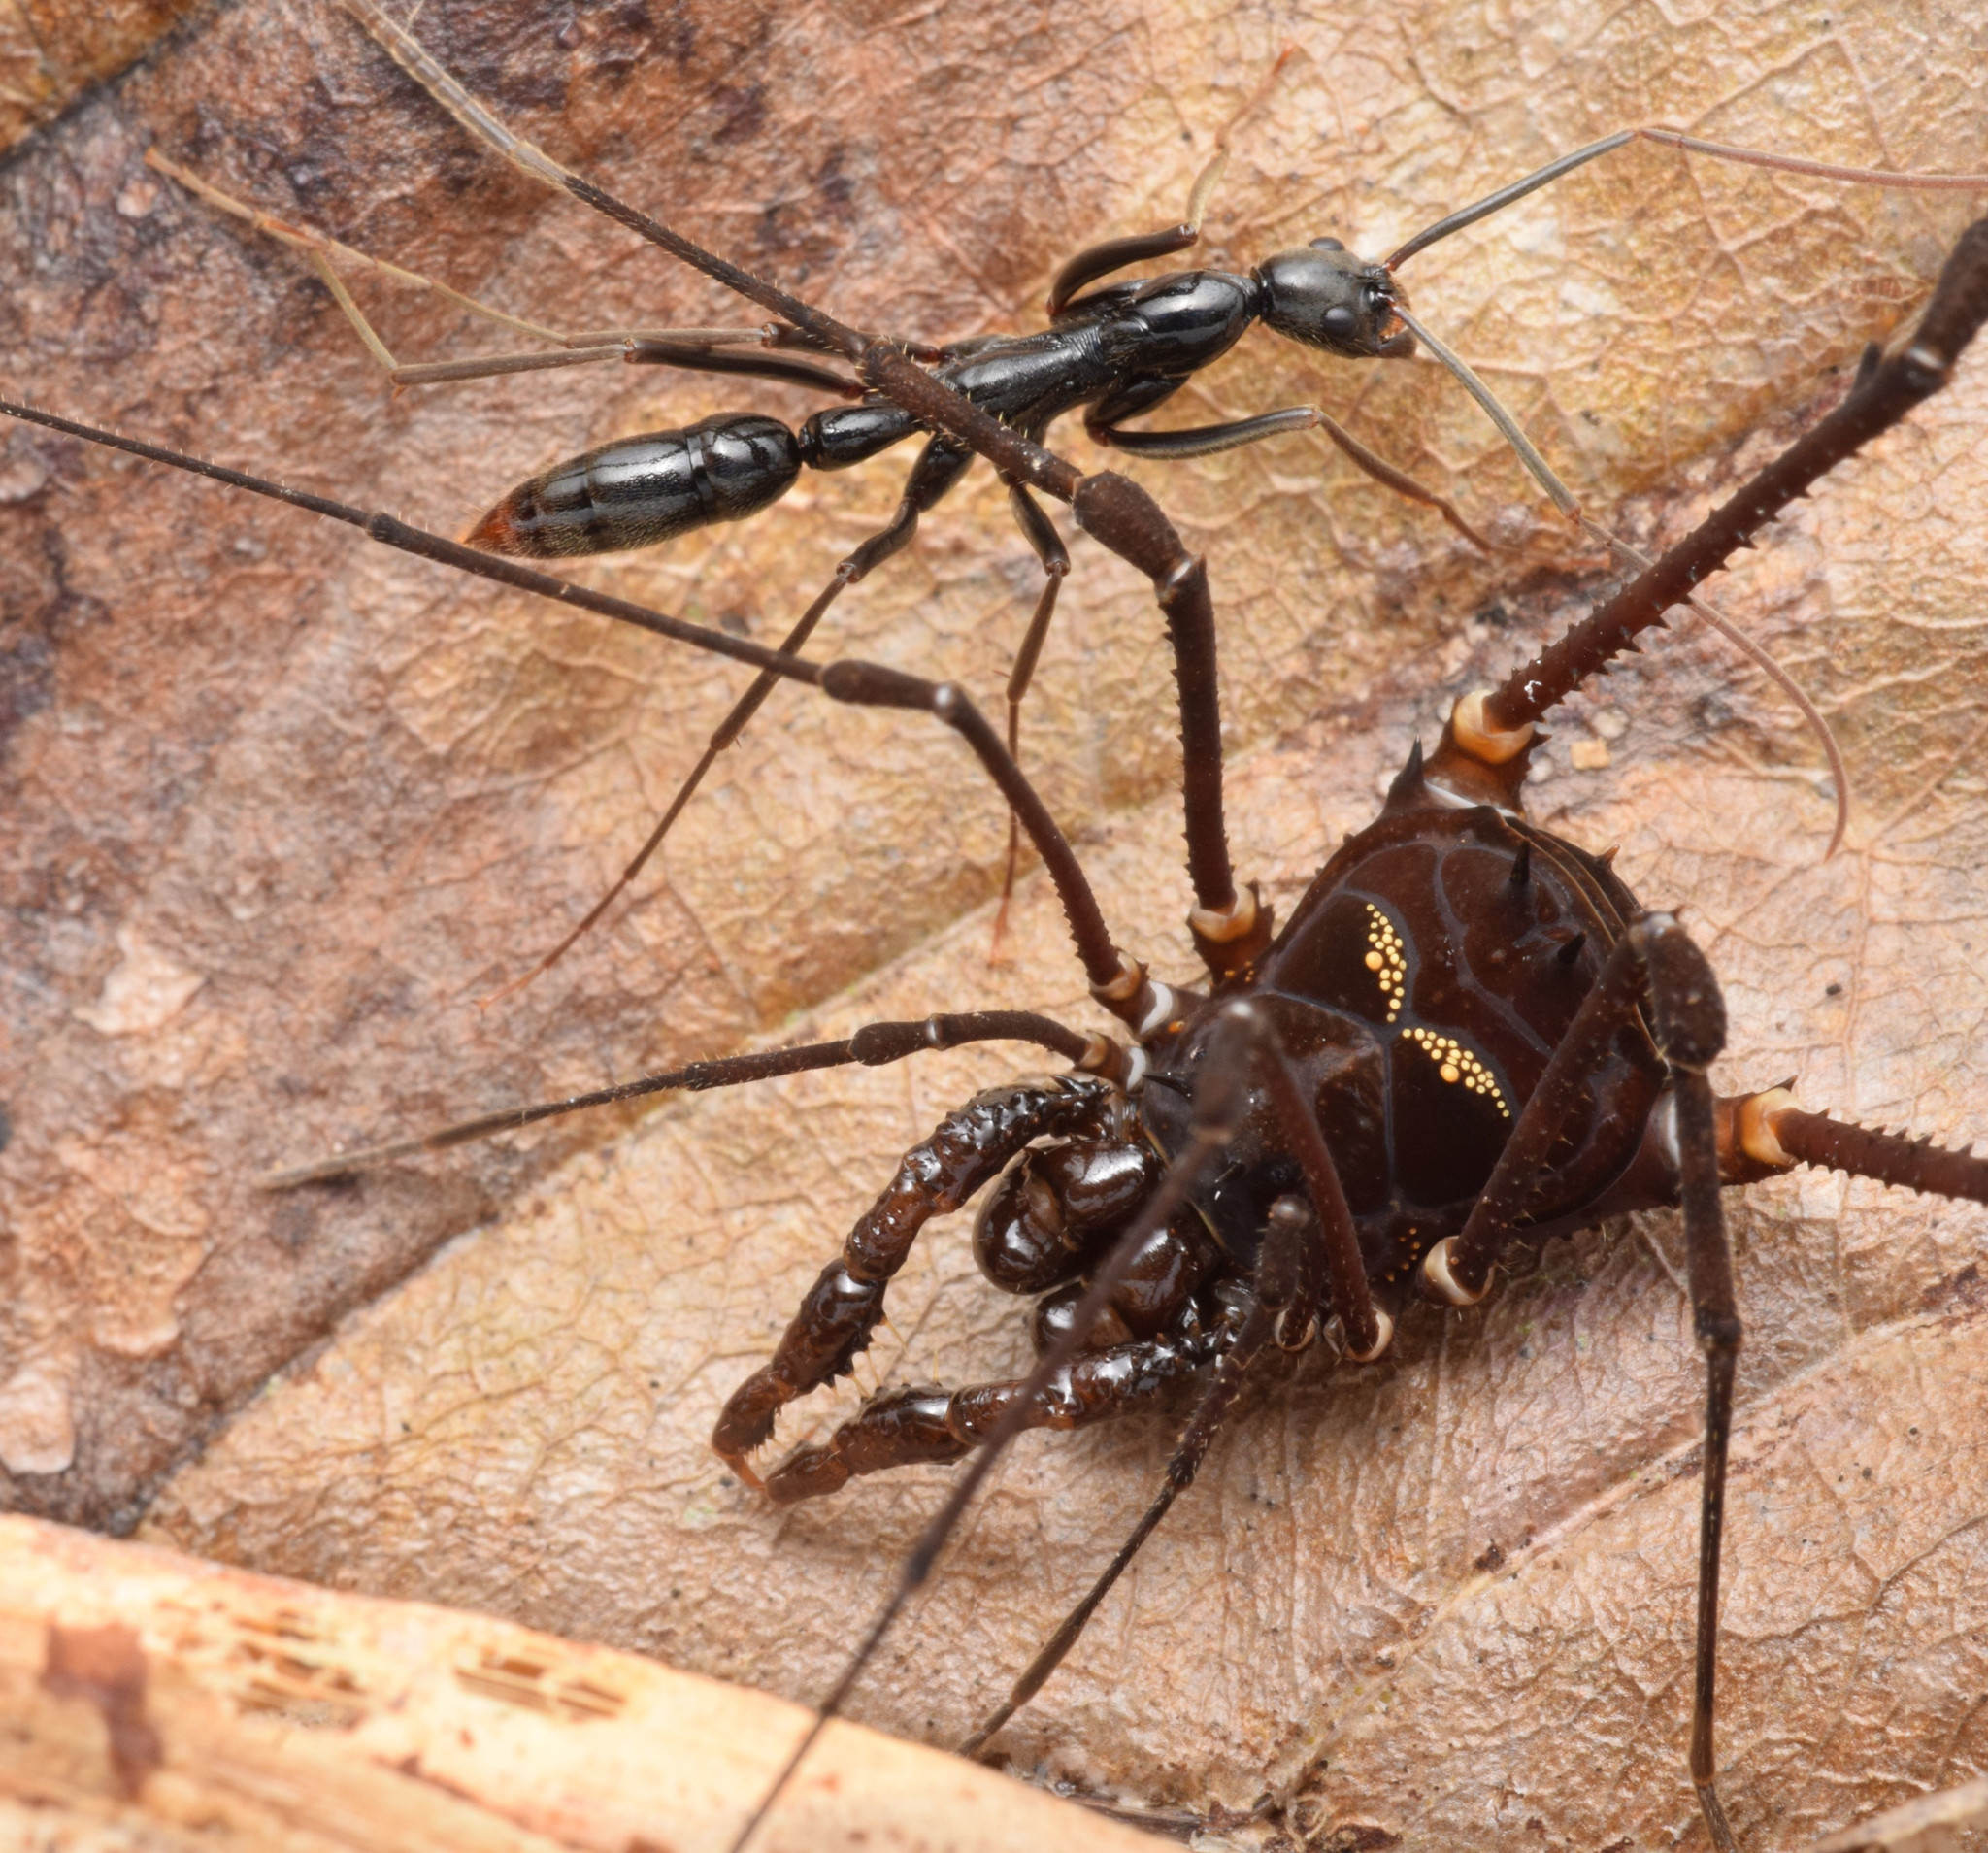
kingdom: Animalia
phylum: Arthropoda
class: Insecta
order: Hymenoptera
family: Formicidae
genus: Leptogenys
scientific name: Leptogenys famelica
